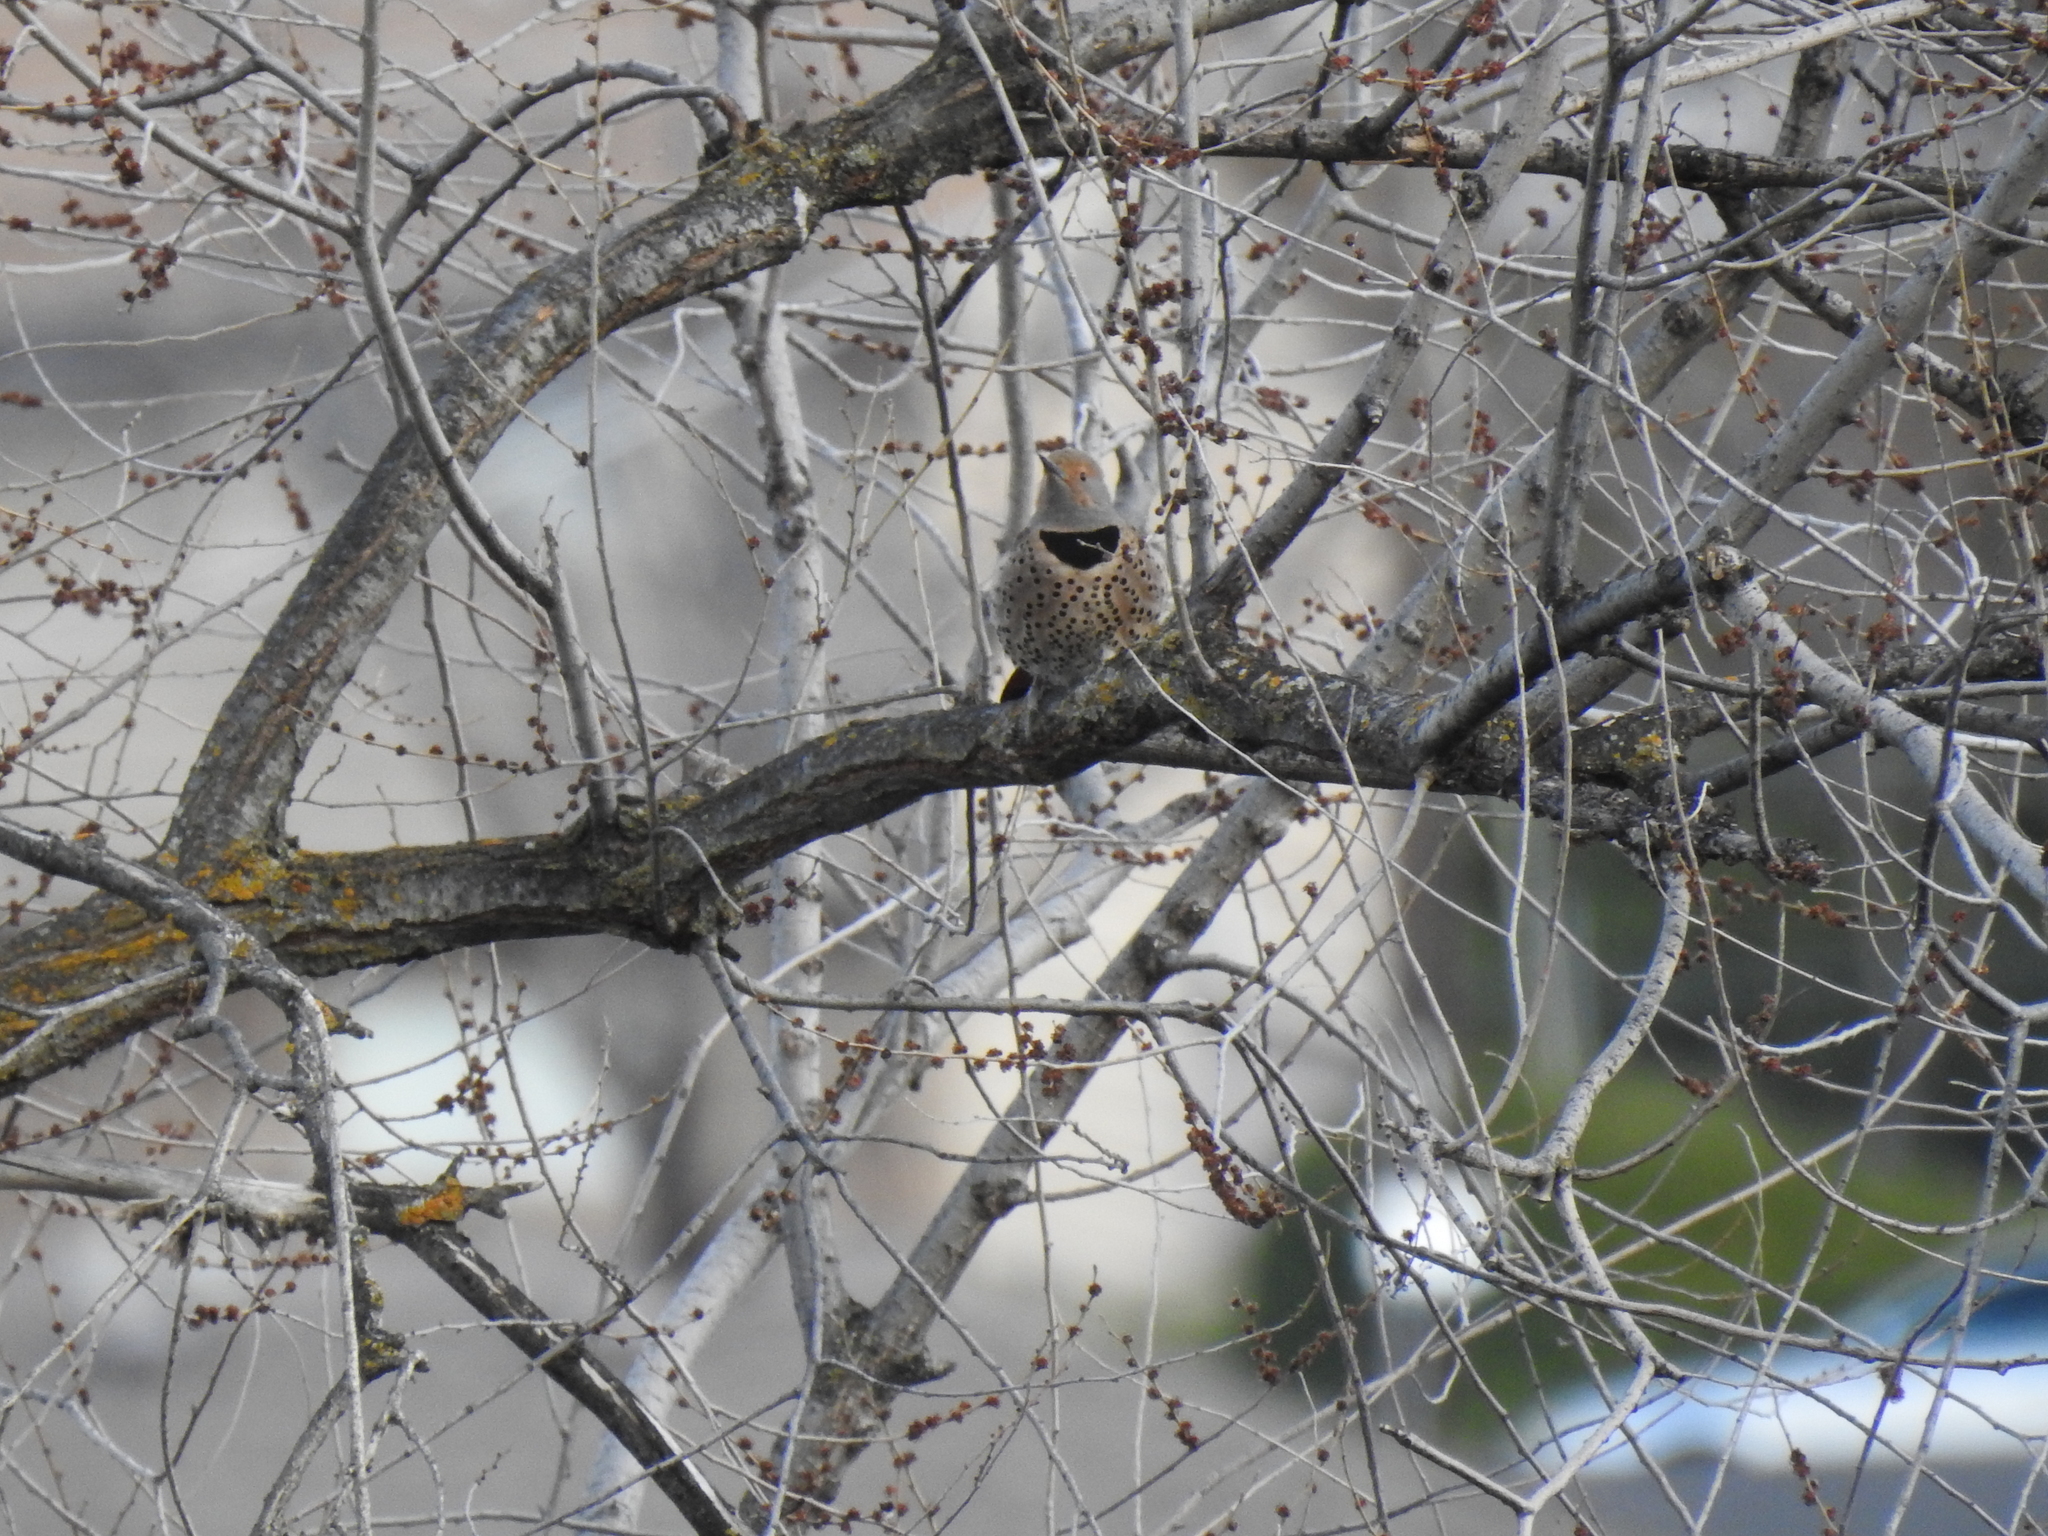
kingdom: Animalia
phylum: Chordata
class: Aves
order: Piciformes
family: Picidae
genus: Colaptes
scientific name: Colaptes auratus
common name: Northern flicker
